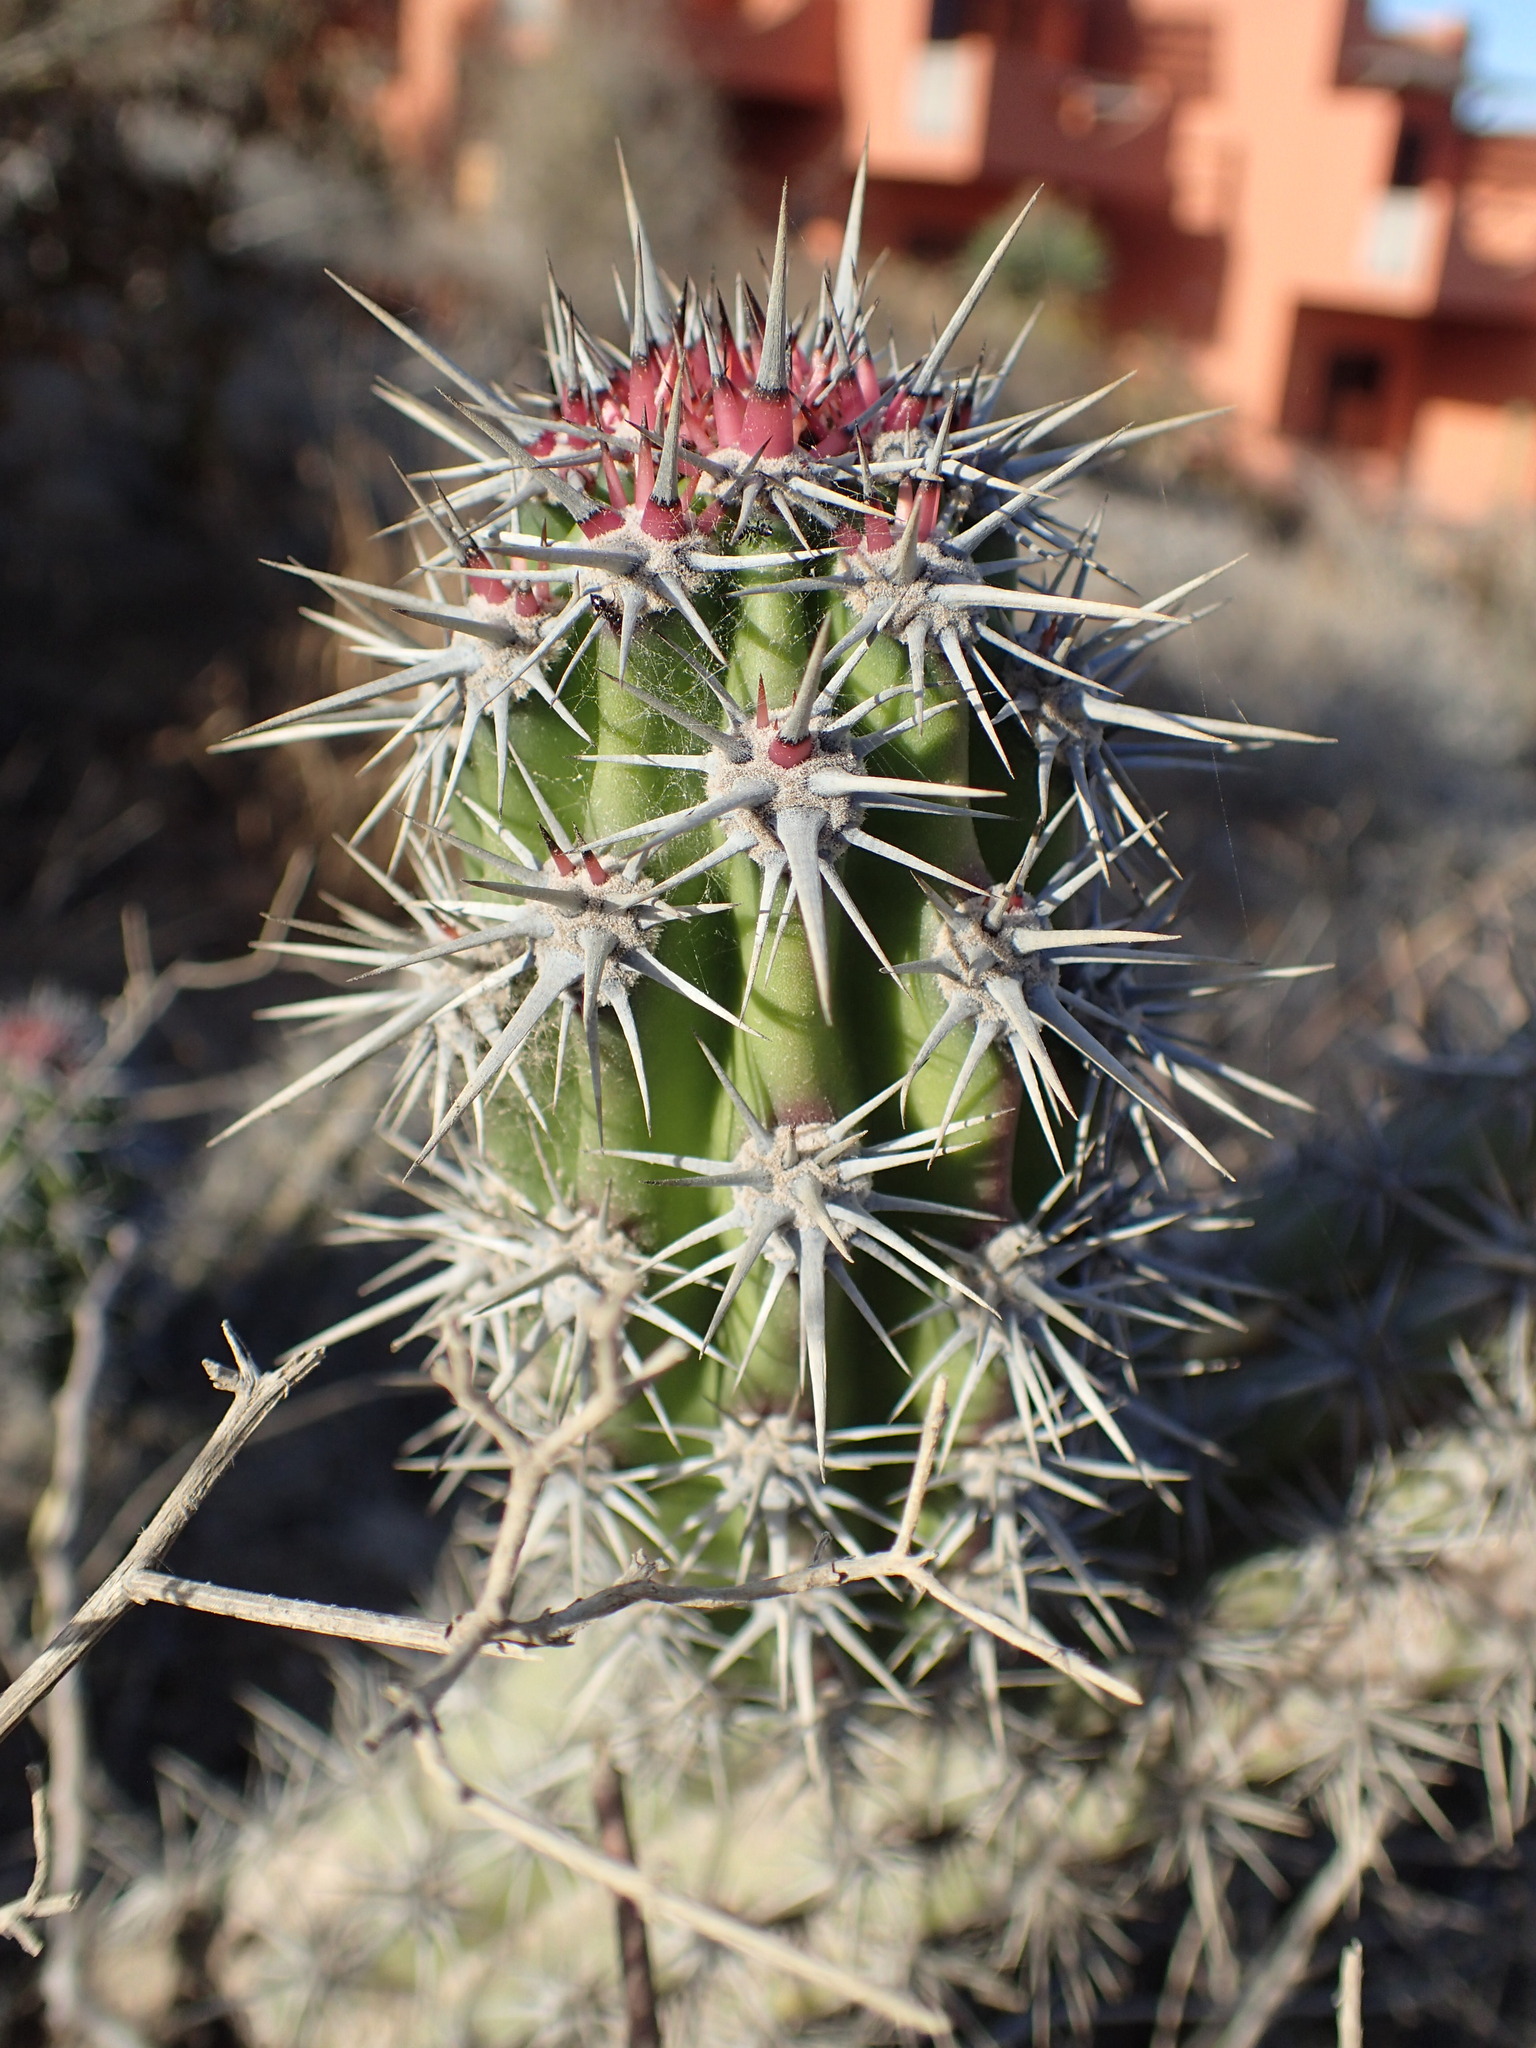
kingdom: Plantae
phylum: Tracheophyta
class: Magnoliopsida
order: Caryophyllales
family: Cactaceae
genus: Stenocereus
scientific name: Stenocereus gummosus
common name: Dagger cactus
